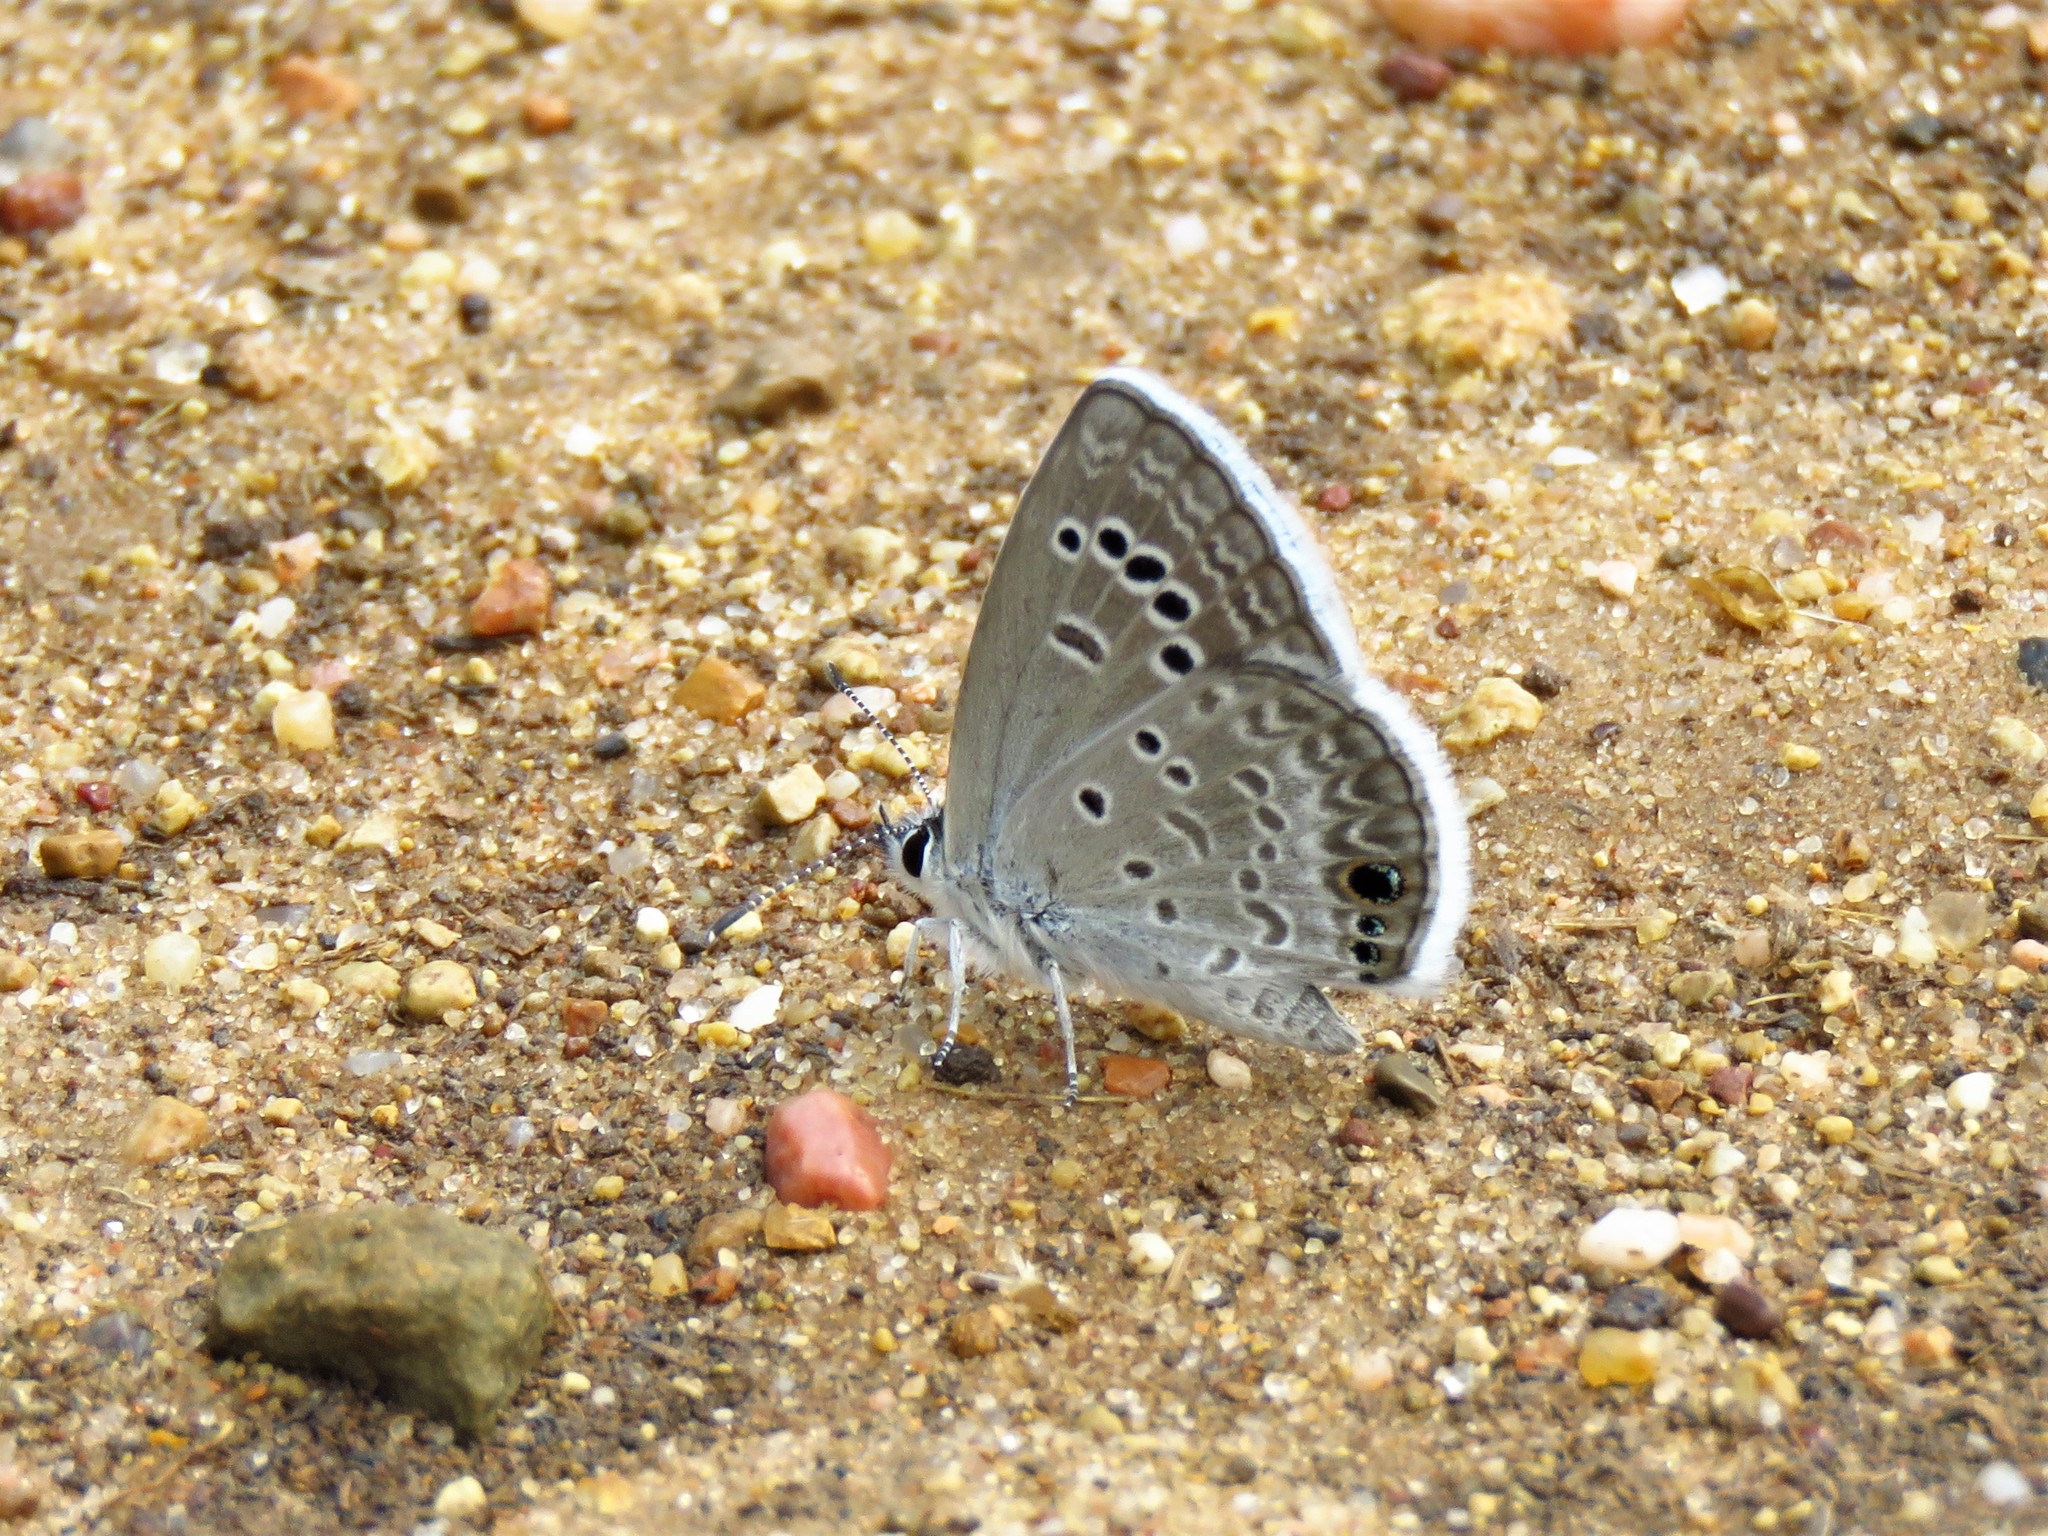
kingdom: Animalia
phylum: Arthropoda
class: Insecta
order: Lepidoptera
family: Lycaenidae
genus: Echinargus
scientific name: Echinargus isola
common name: Reakirt's blue
